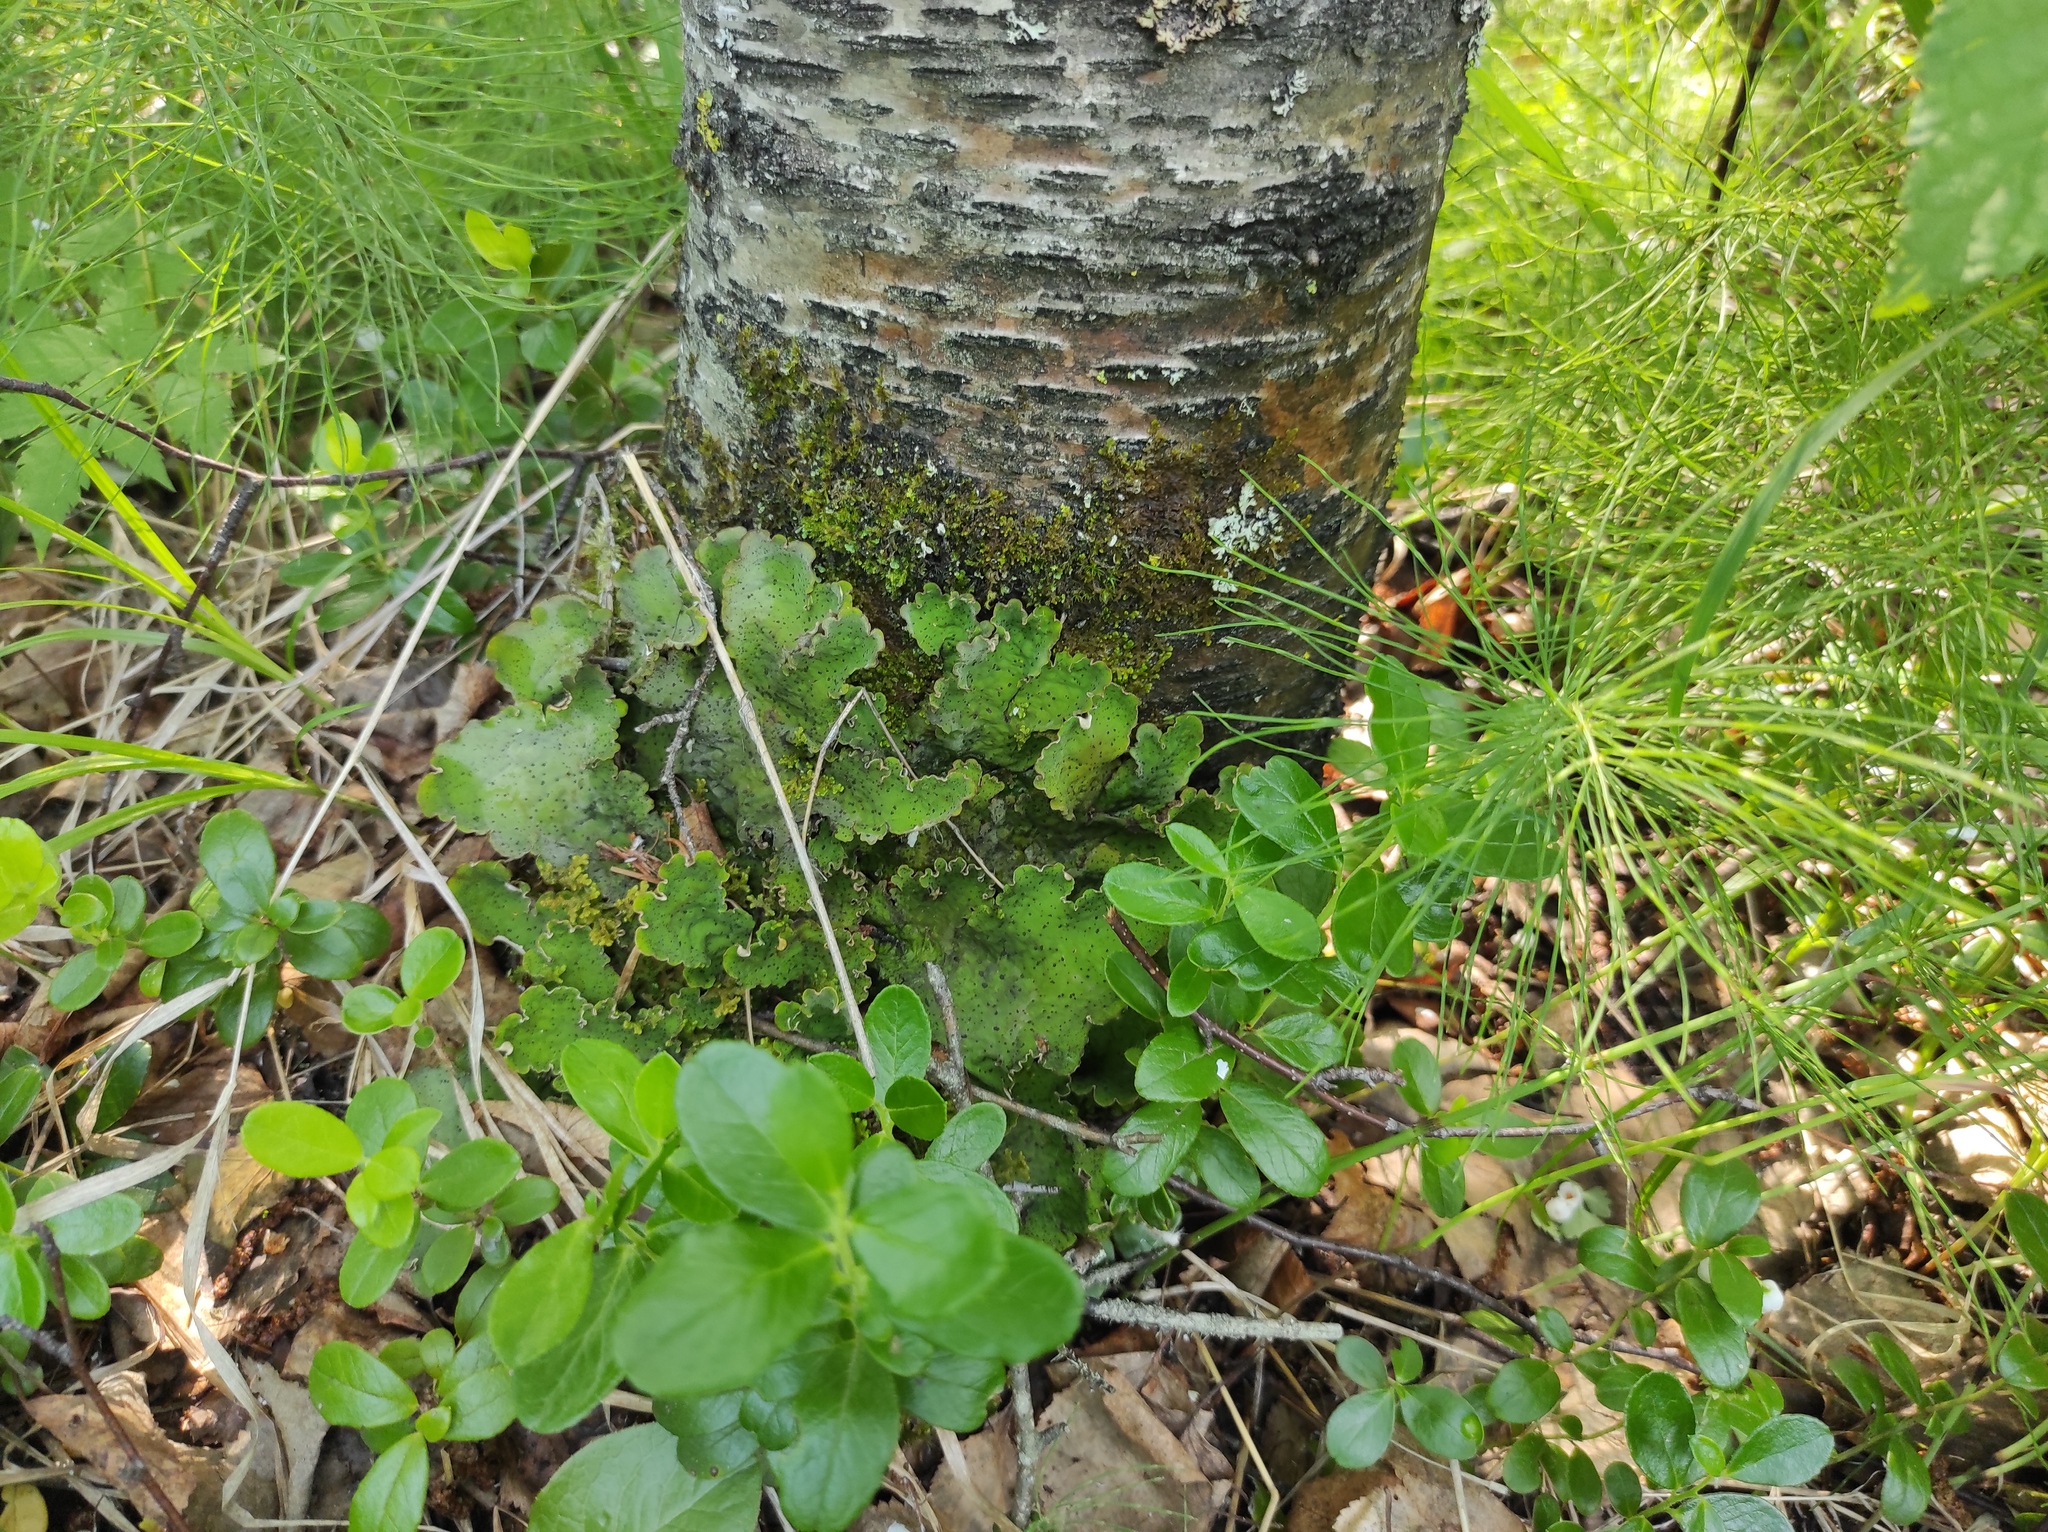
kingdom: Plantae
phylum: Tracheophyta
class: Magnoliopsida
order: Ericales
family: Ericaceae
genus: Vaccinium
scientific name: Vaccinium vitis-idaea
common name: Cowberry
